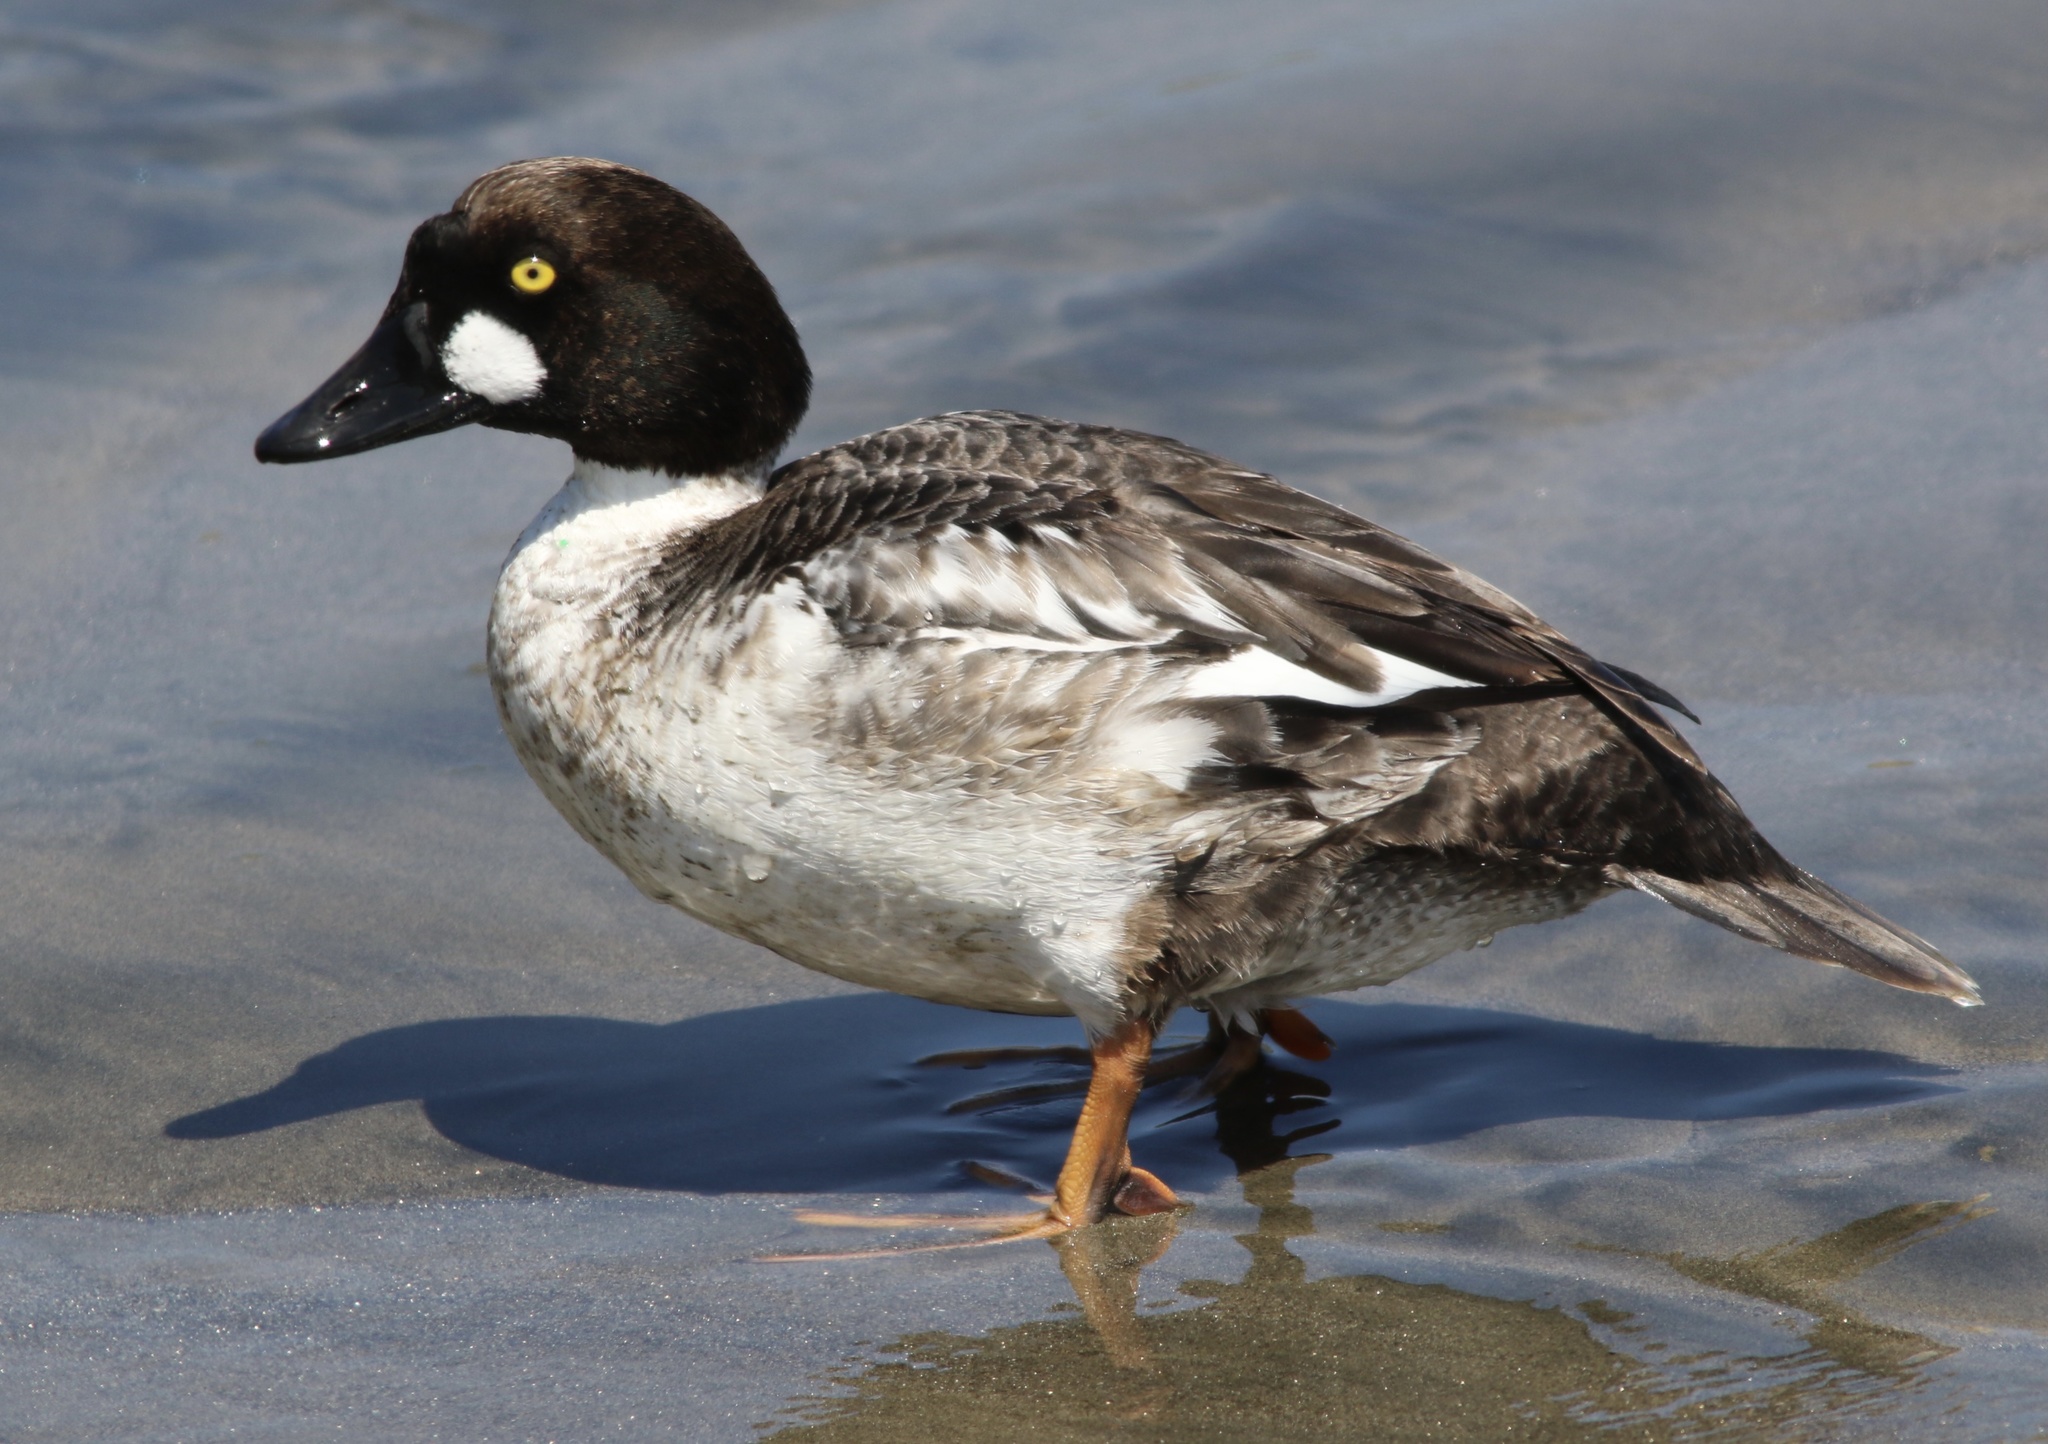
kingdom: Animalia
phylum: Chordata
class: Aves
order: Anseriformes
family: Anatidae
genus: Bucephala
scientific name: Bucephala clangula
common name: Common goldeneye
